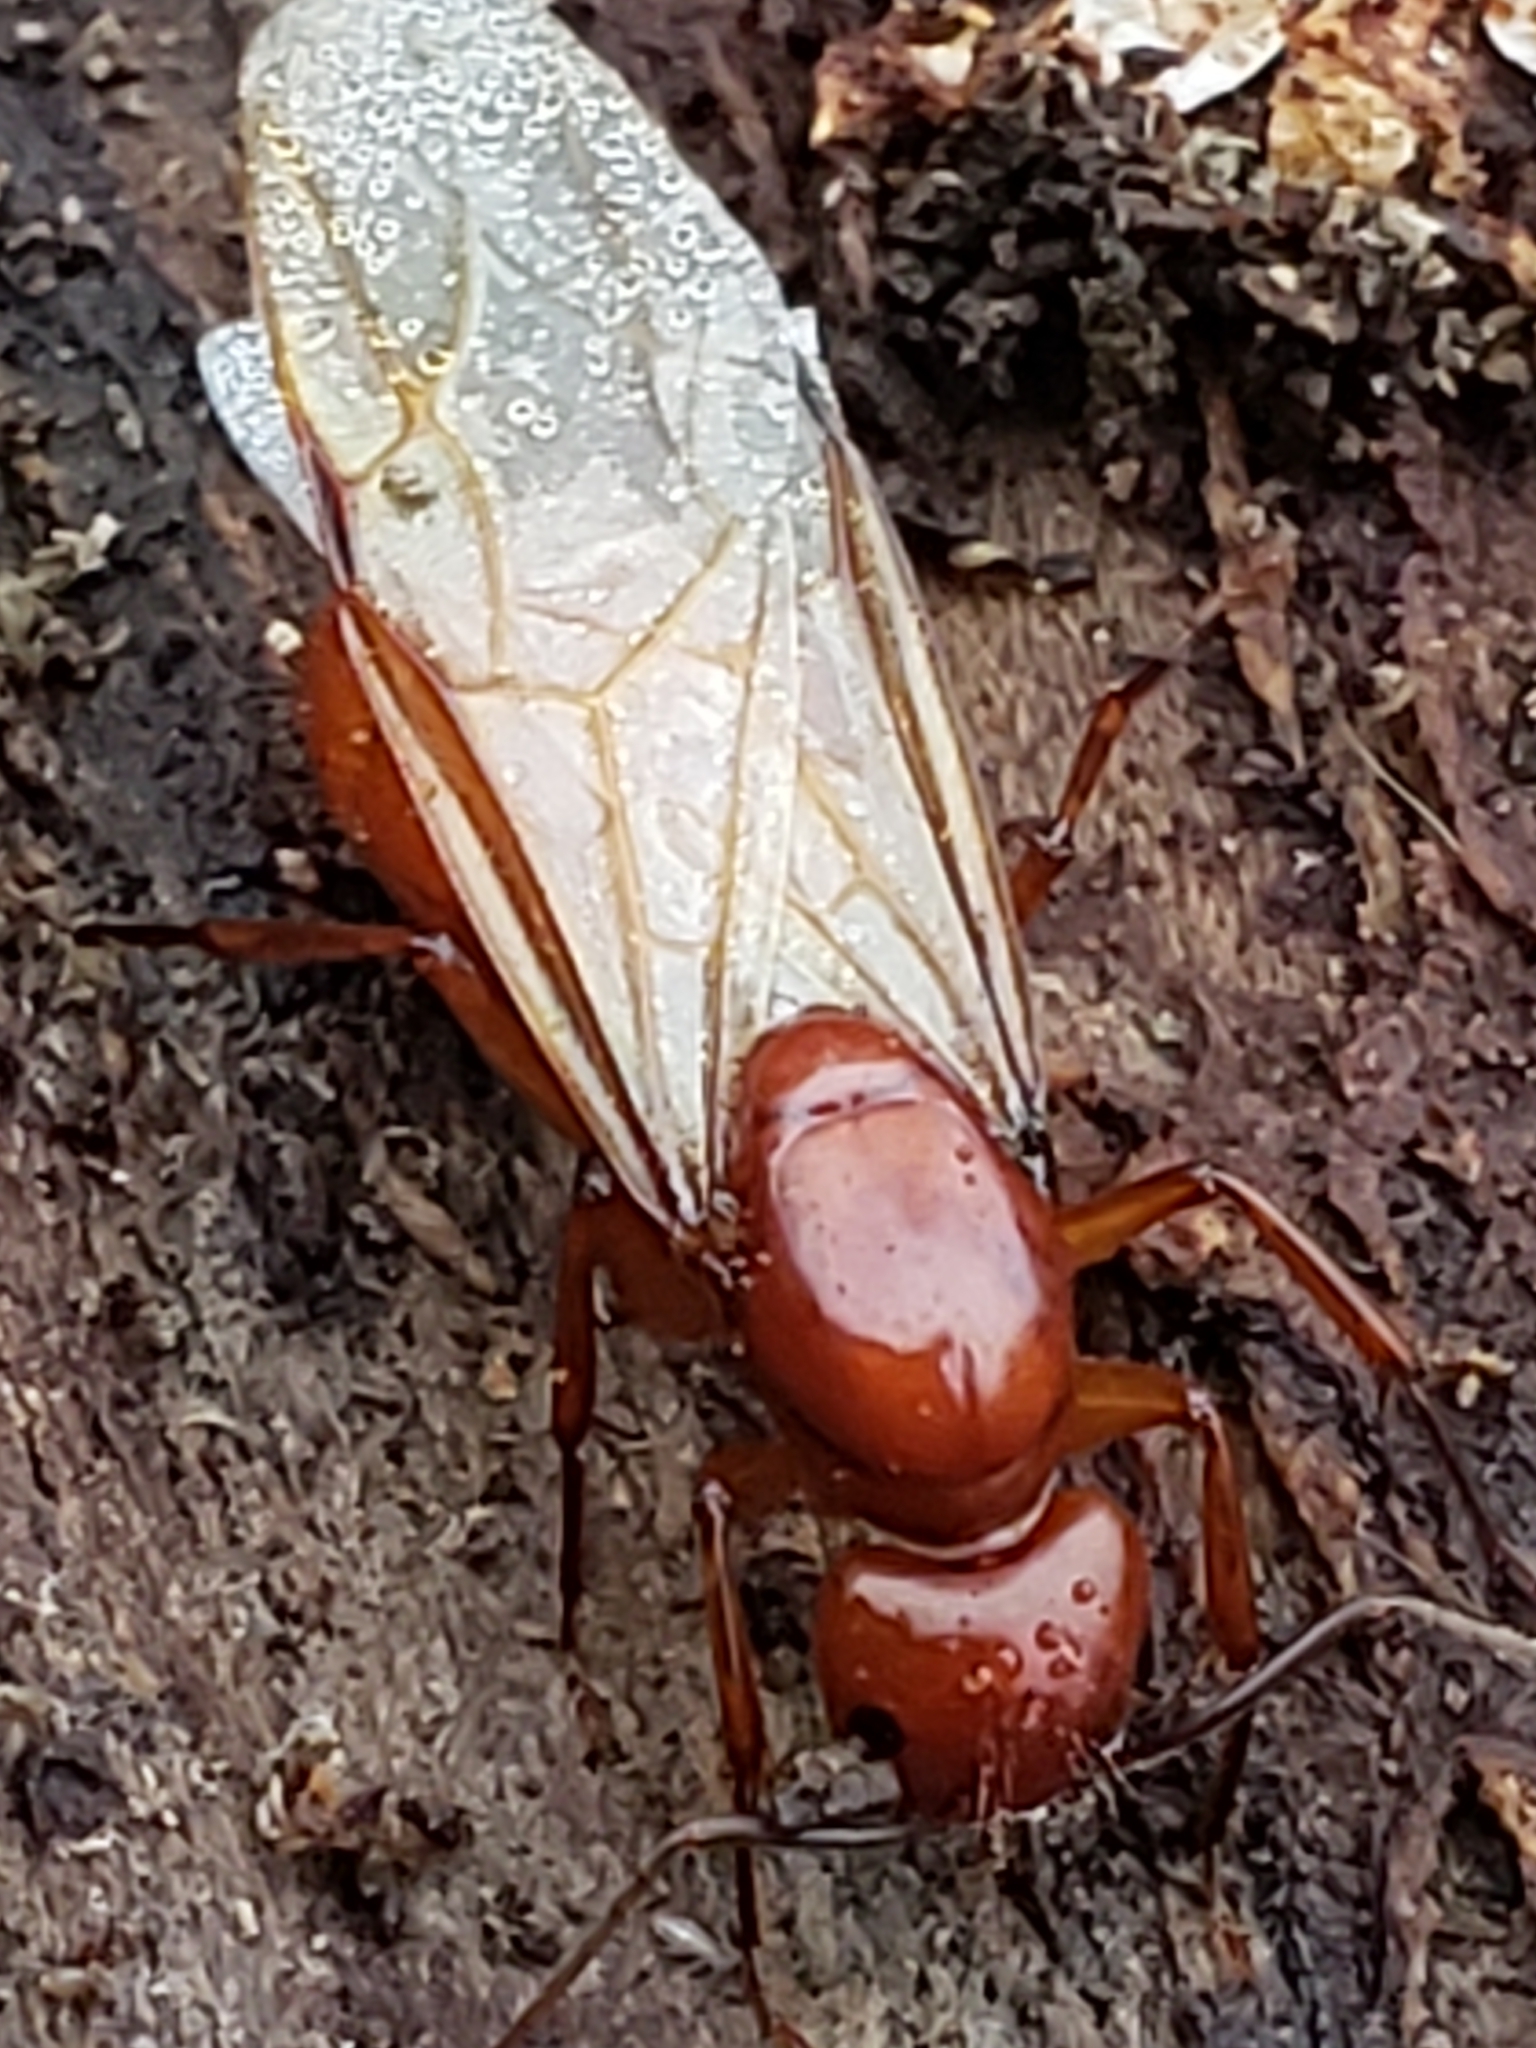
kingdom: Animalia
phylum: Arthropoda
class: Insecta
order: Hymenoptera
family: Formicidae
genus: Camponotus
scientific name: Camponotus castaneus
